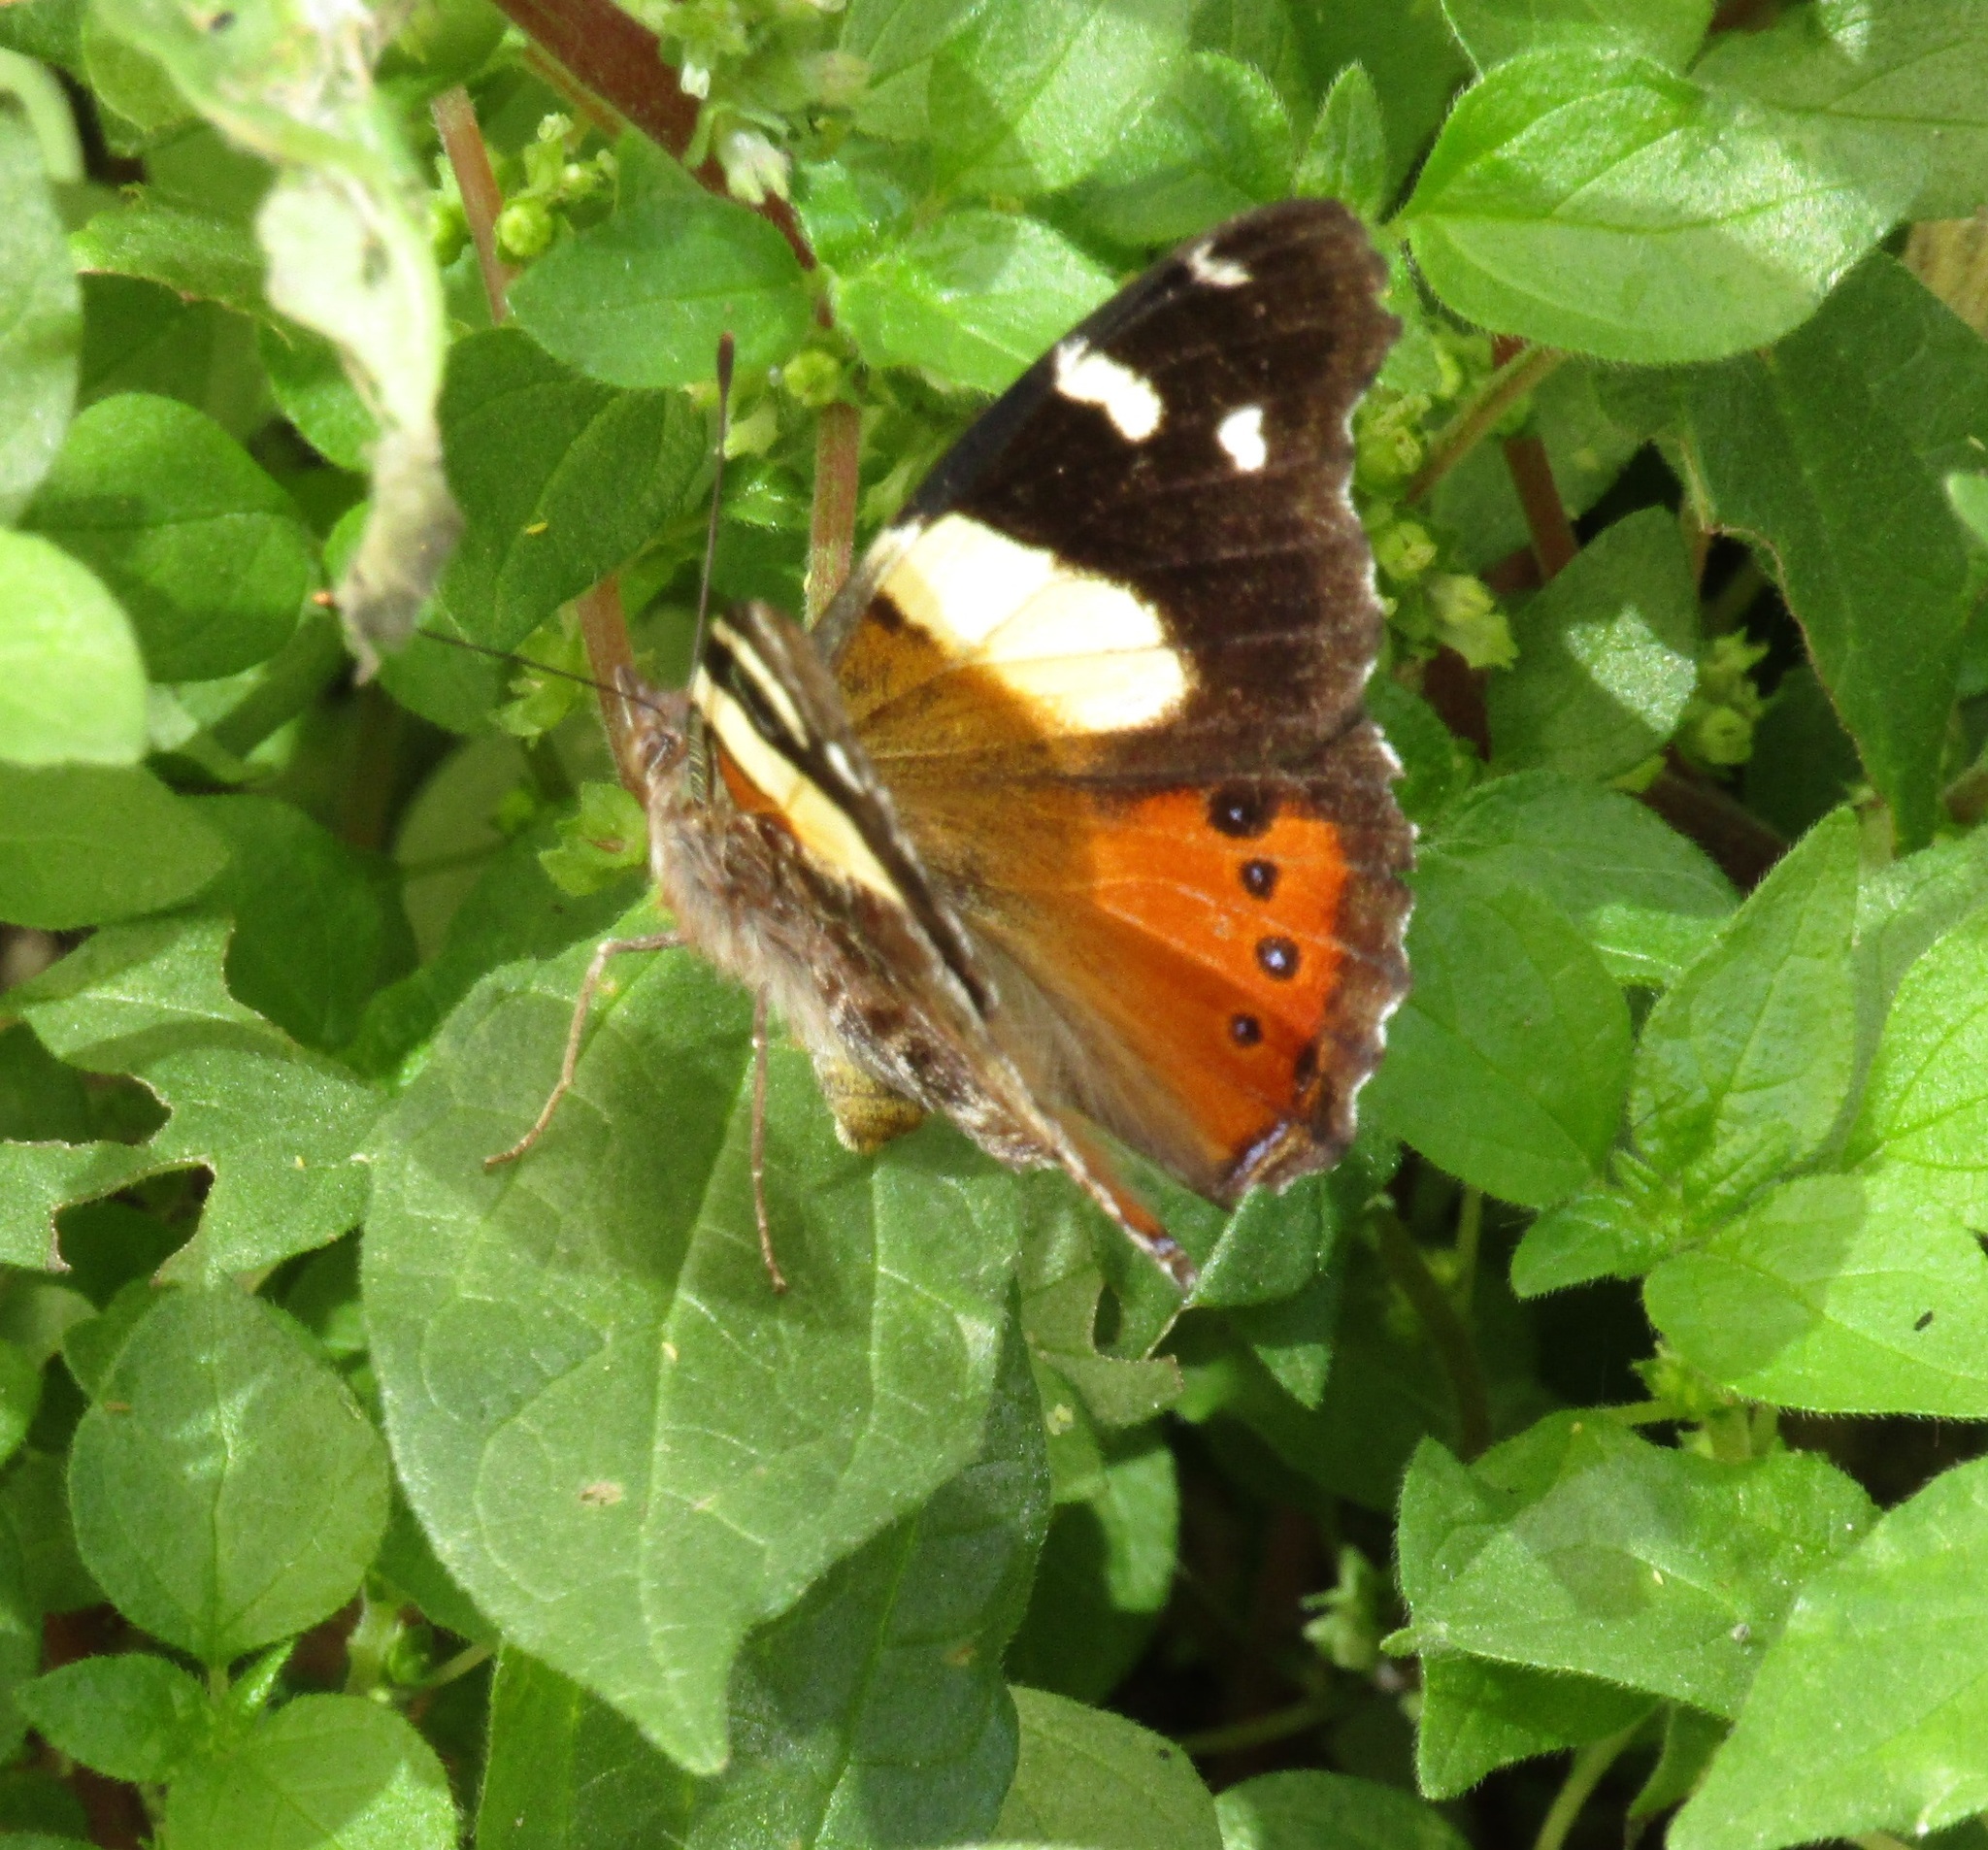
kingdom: Animalia
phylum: Arthropoda
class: Insecta
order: Lepidoptera
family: Nymphalidae
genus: Vanessa
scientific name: Vanessa itea
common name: Yellow admiral
